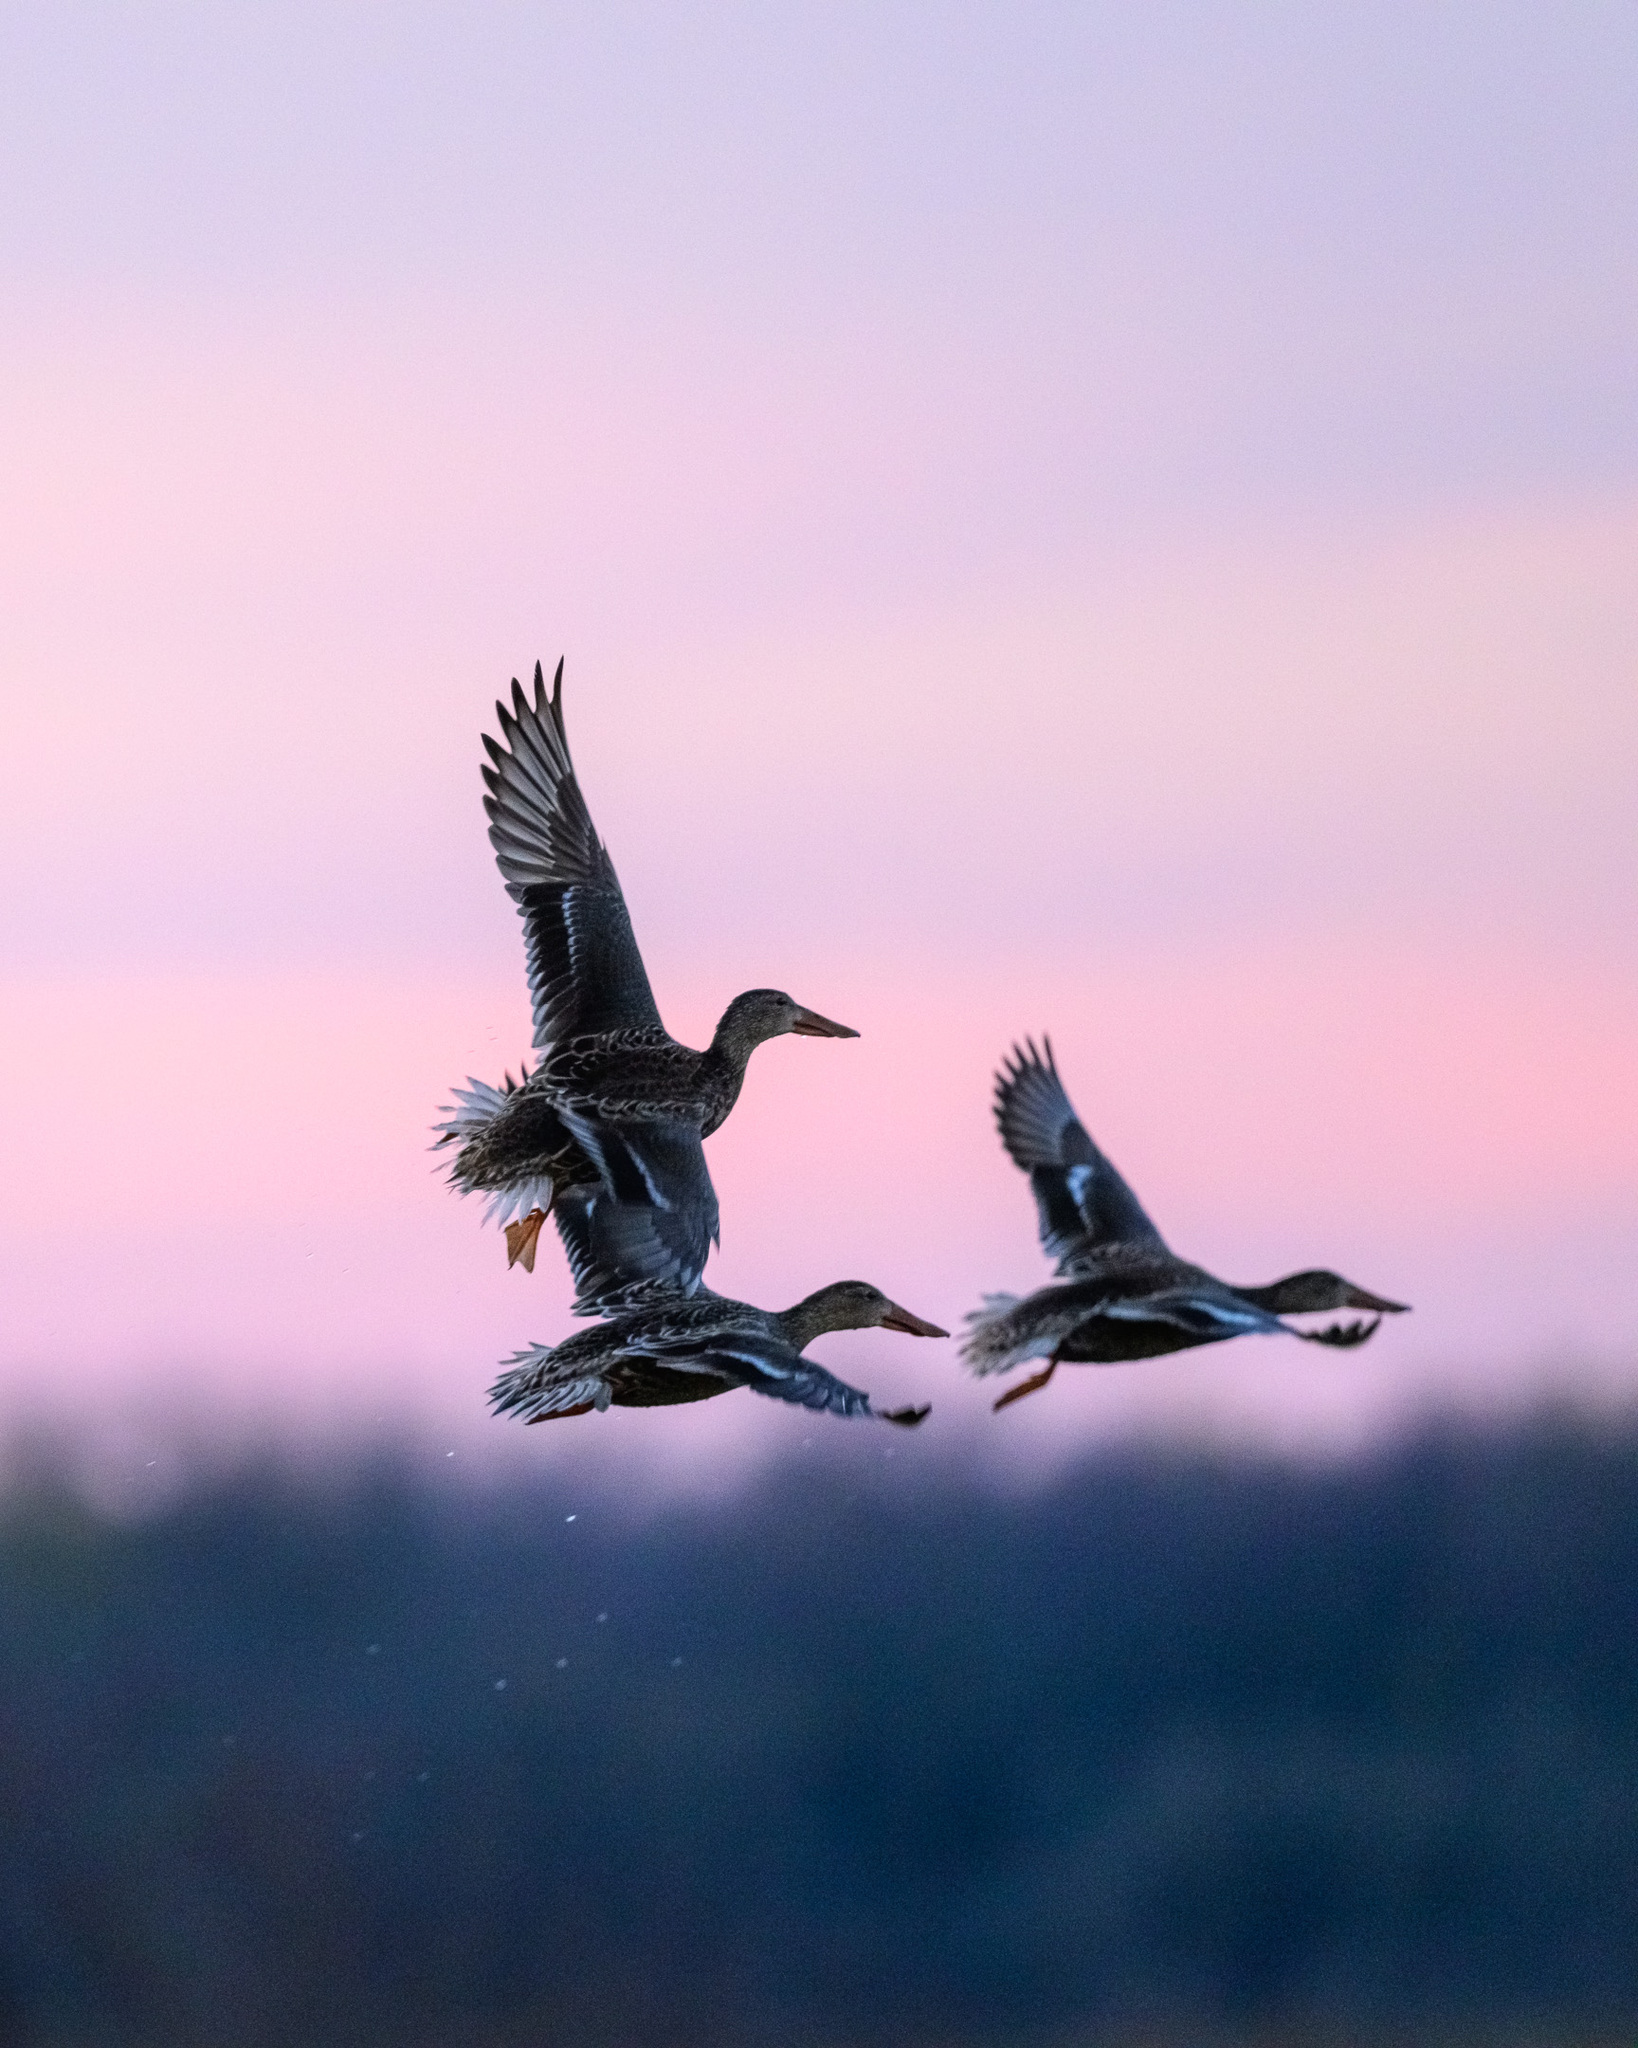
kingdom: Animalia
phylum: Chordata
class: Aves
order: Anseriformes
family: Anatidae
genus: Spatula
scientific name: Spatula clypeata
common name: Northern shoveler
